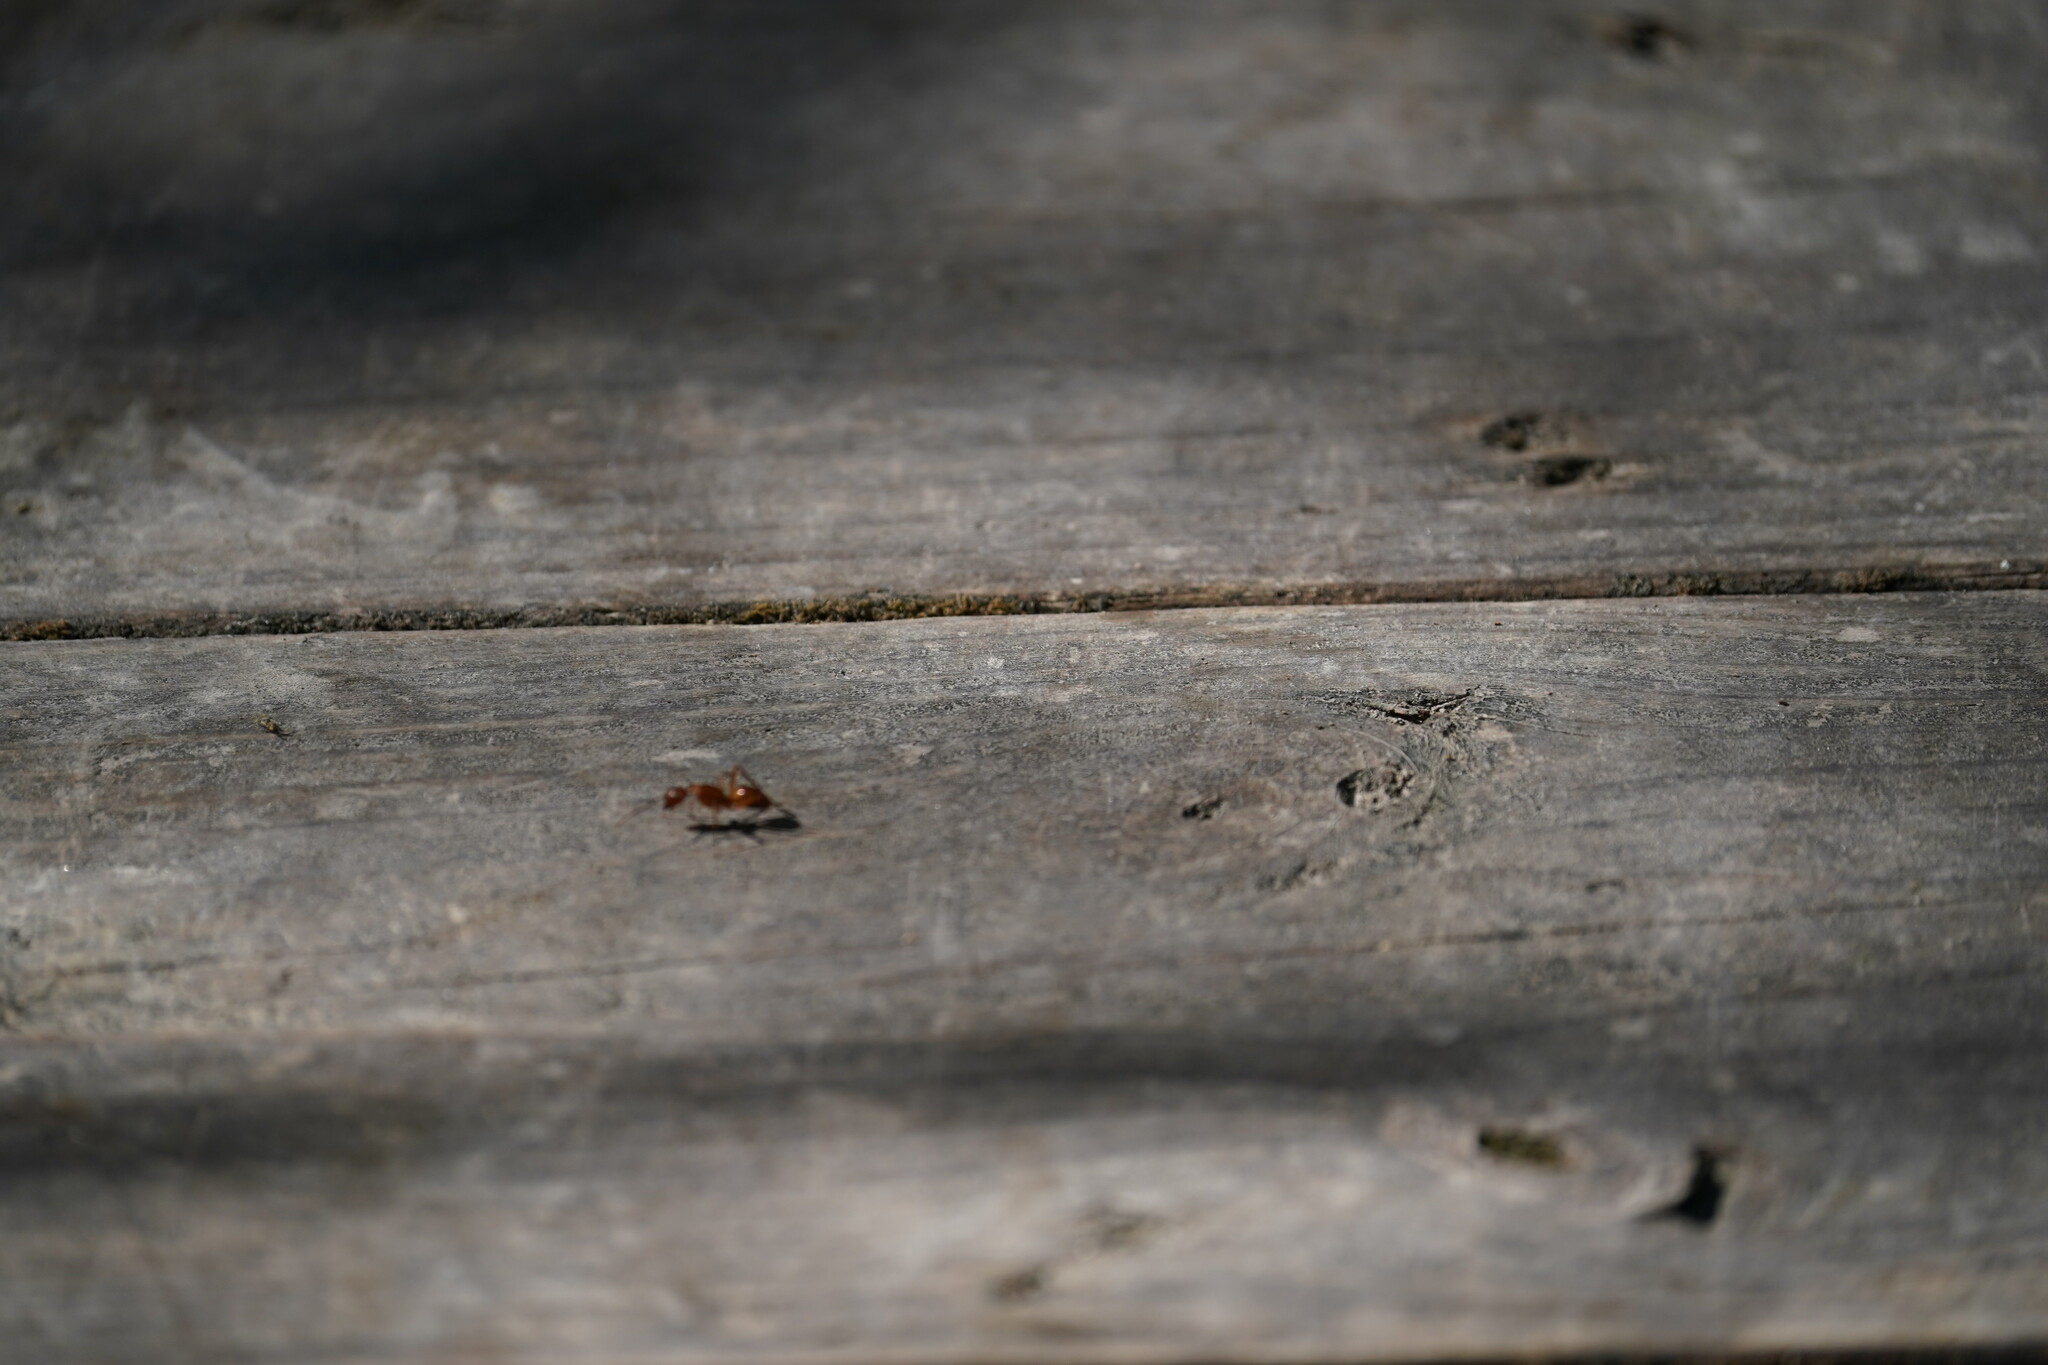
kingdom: Animalia
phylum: Arthropoda
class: Insecta
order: Hymenoptera
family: Formicidae
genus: Camponotus
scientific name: Camponotus castaneus
